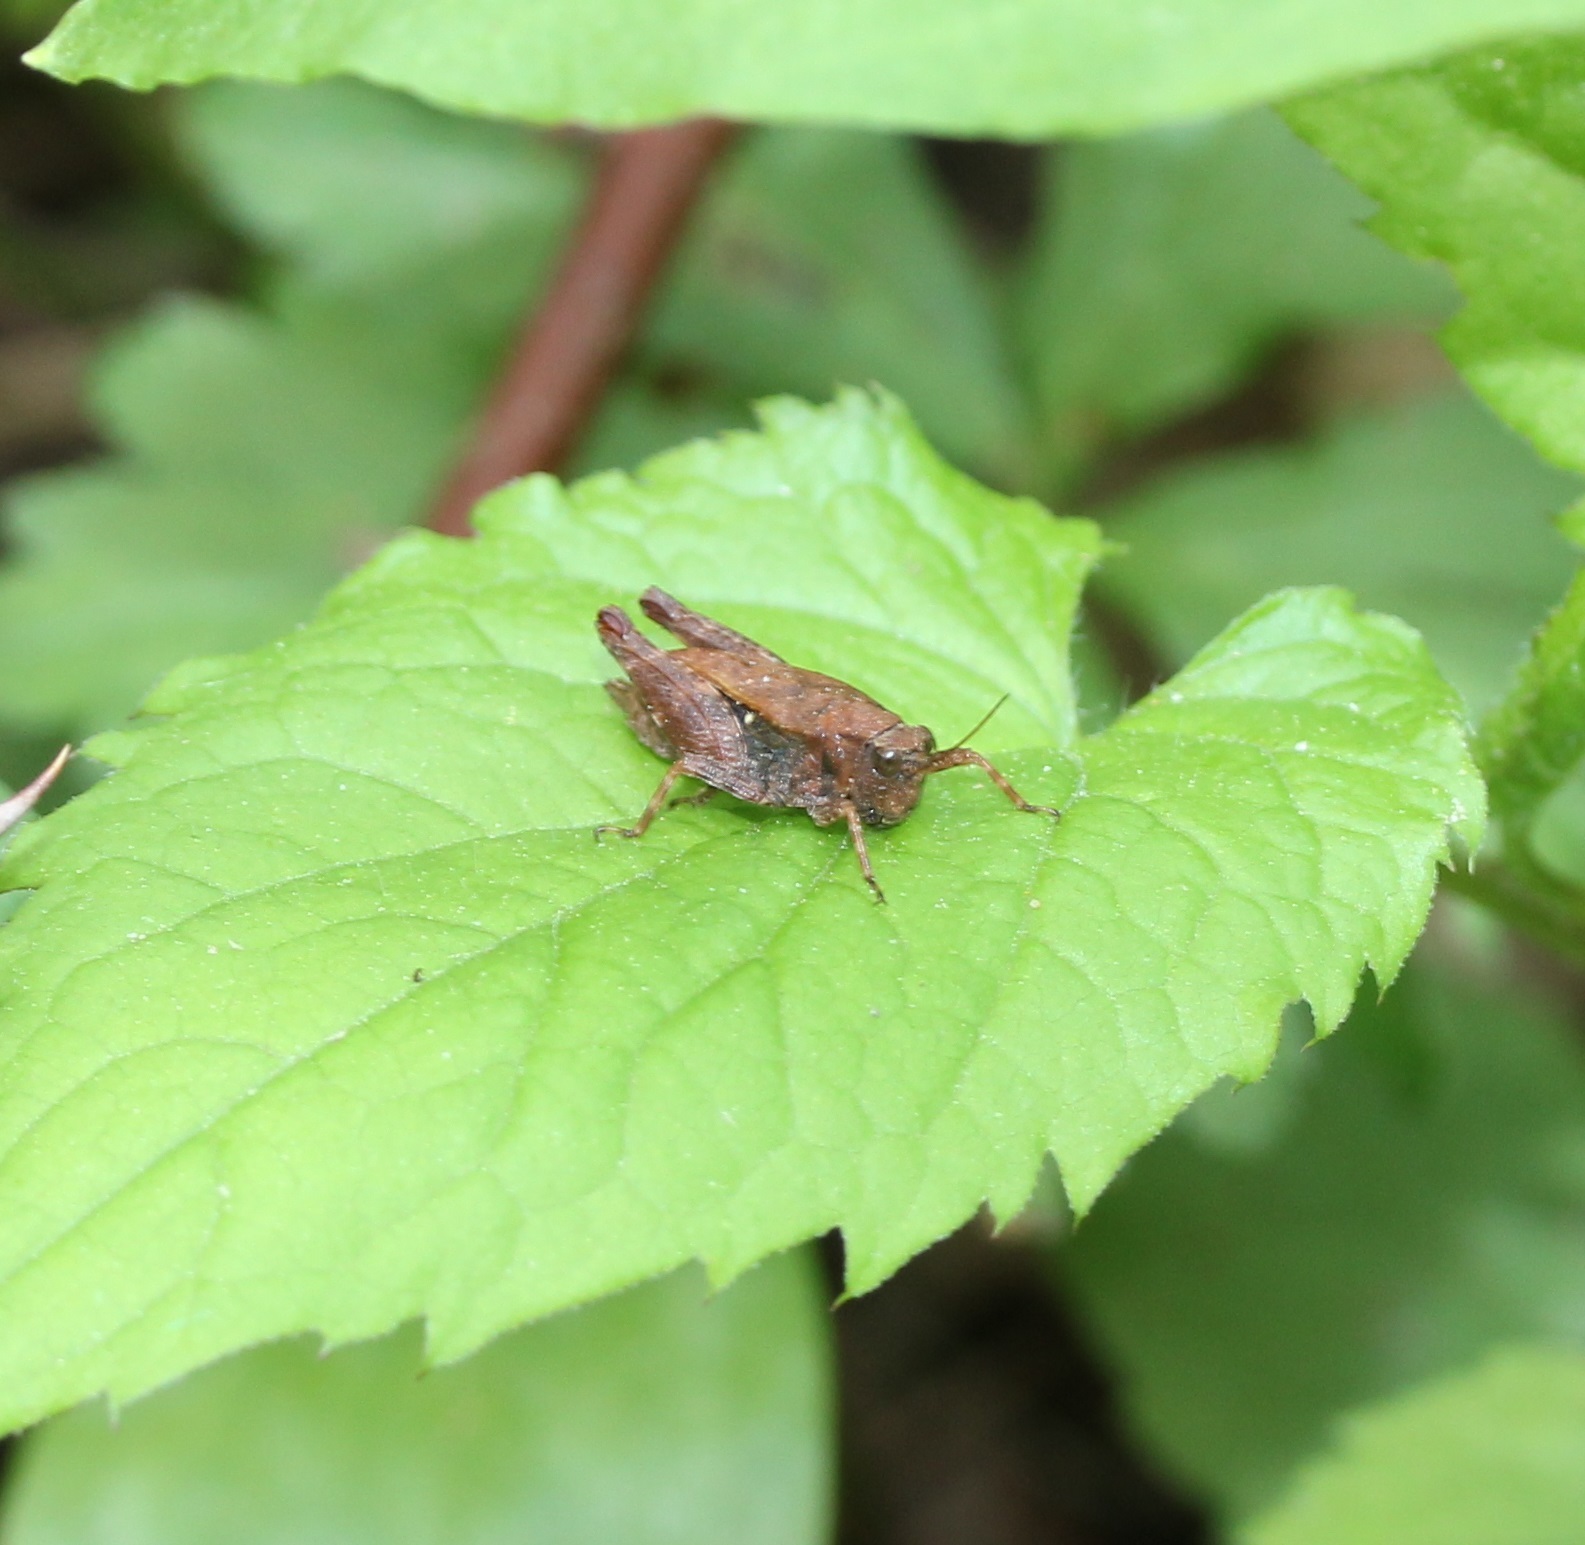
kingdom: Animalia
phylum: Arthropoda
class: Insecta
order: Orthoptera
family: Tetrigidae
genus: Tettigidea
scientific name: Tettigidea laterale
